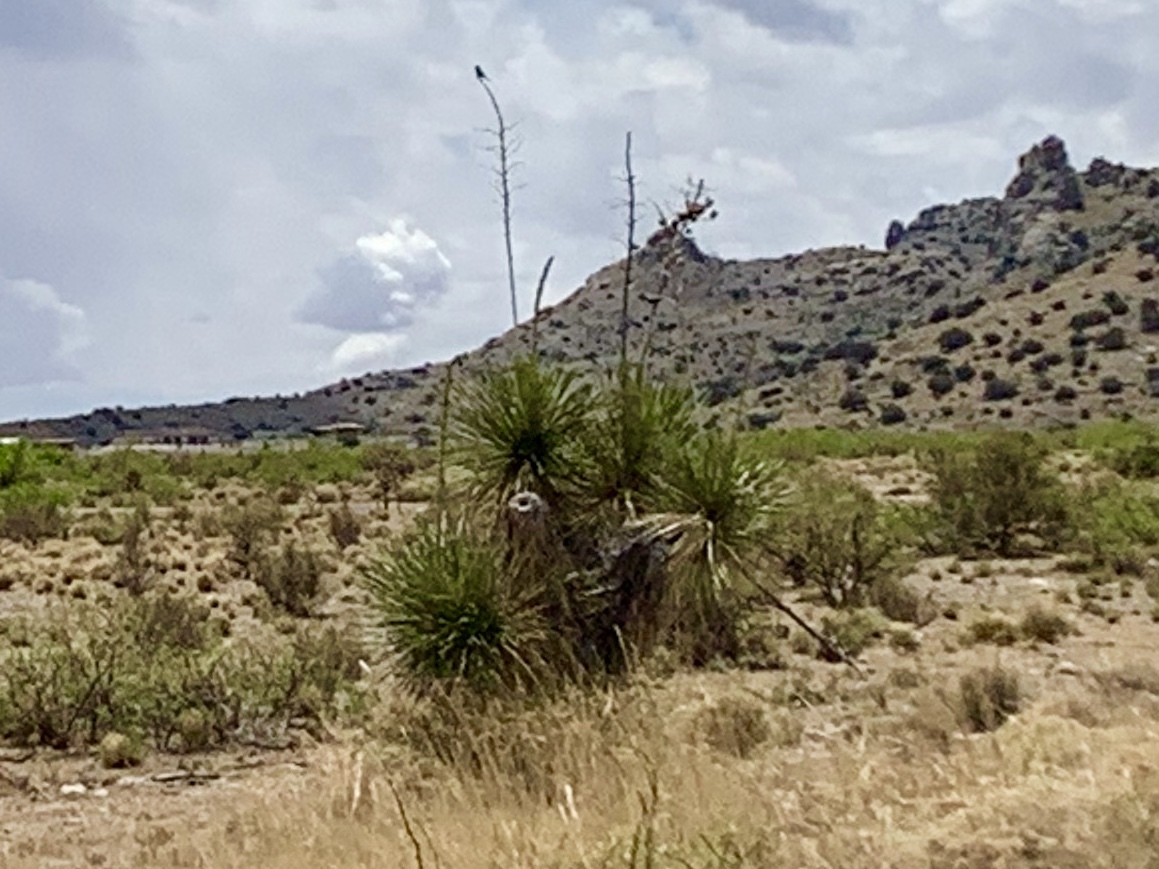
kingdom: Plantae
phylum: Tracheophyta
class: Liliopsida
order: Asparagales
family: Asparagaceae
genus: Yucca
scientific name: Yucca elata
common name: Palmella
